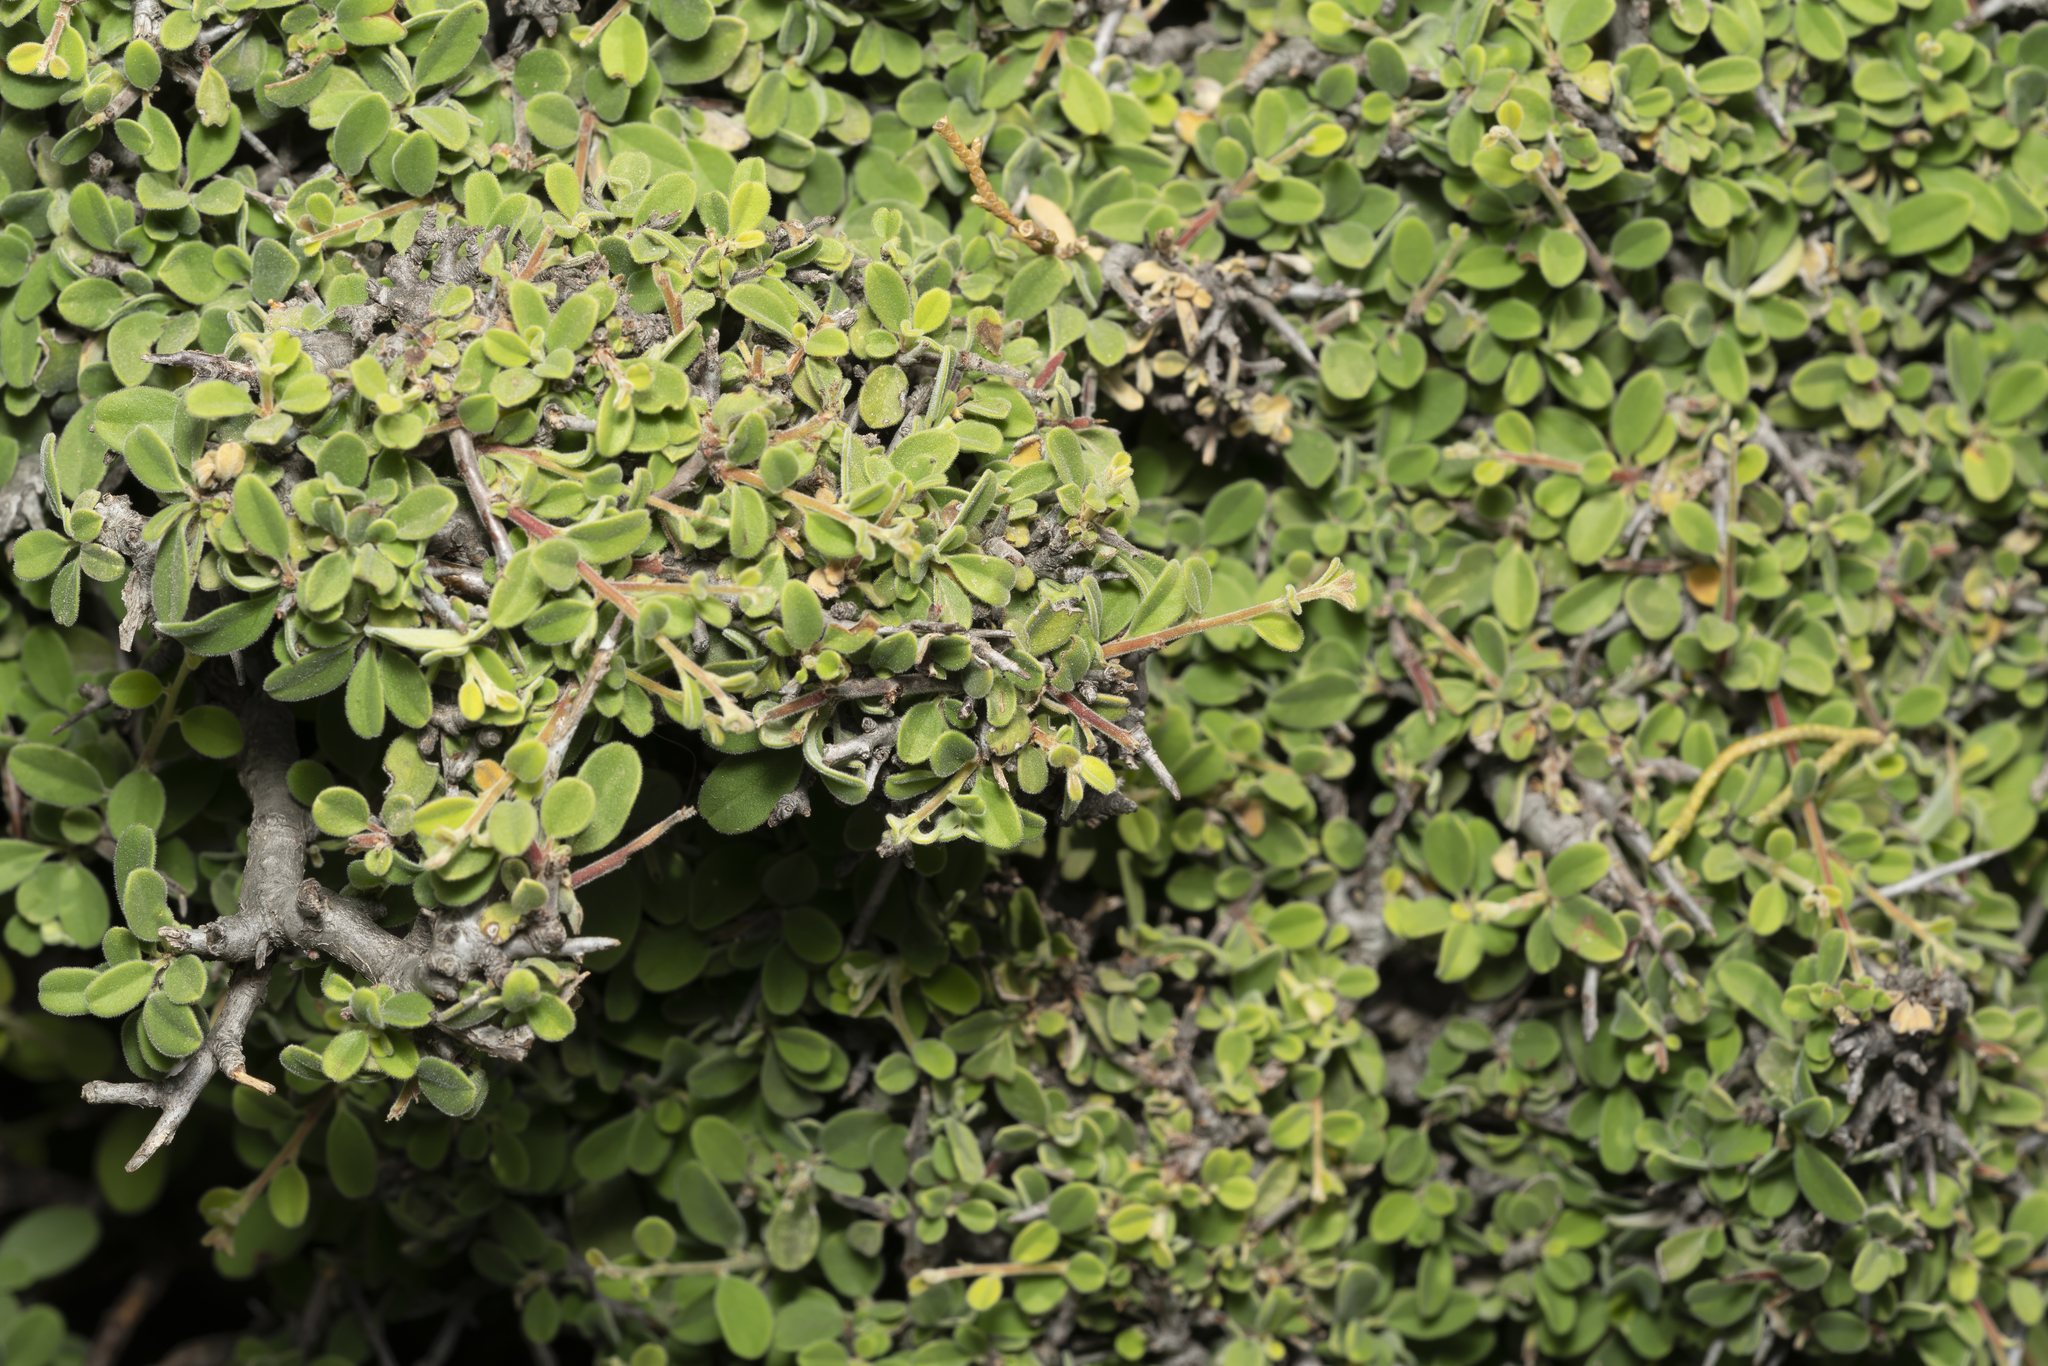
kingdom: Plantae
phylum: Tracheophyta
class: Magnoliopsida
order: Rosales
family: Rhamnaceae
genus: Rhamnus
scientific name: Rhamnus pichleri
